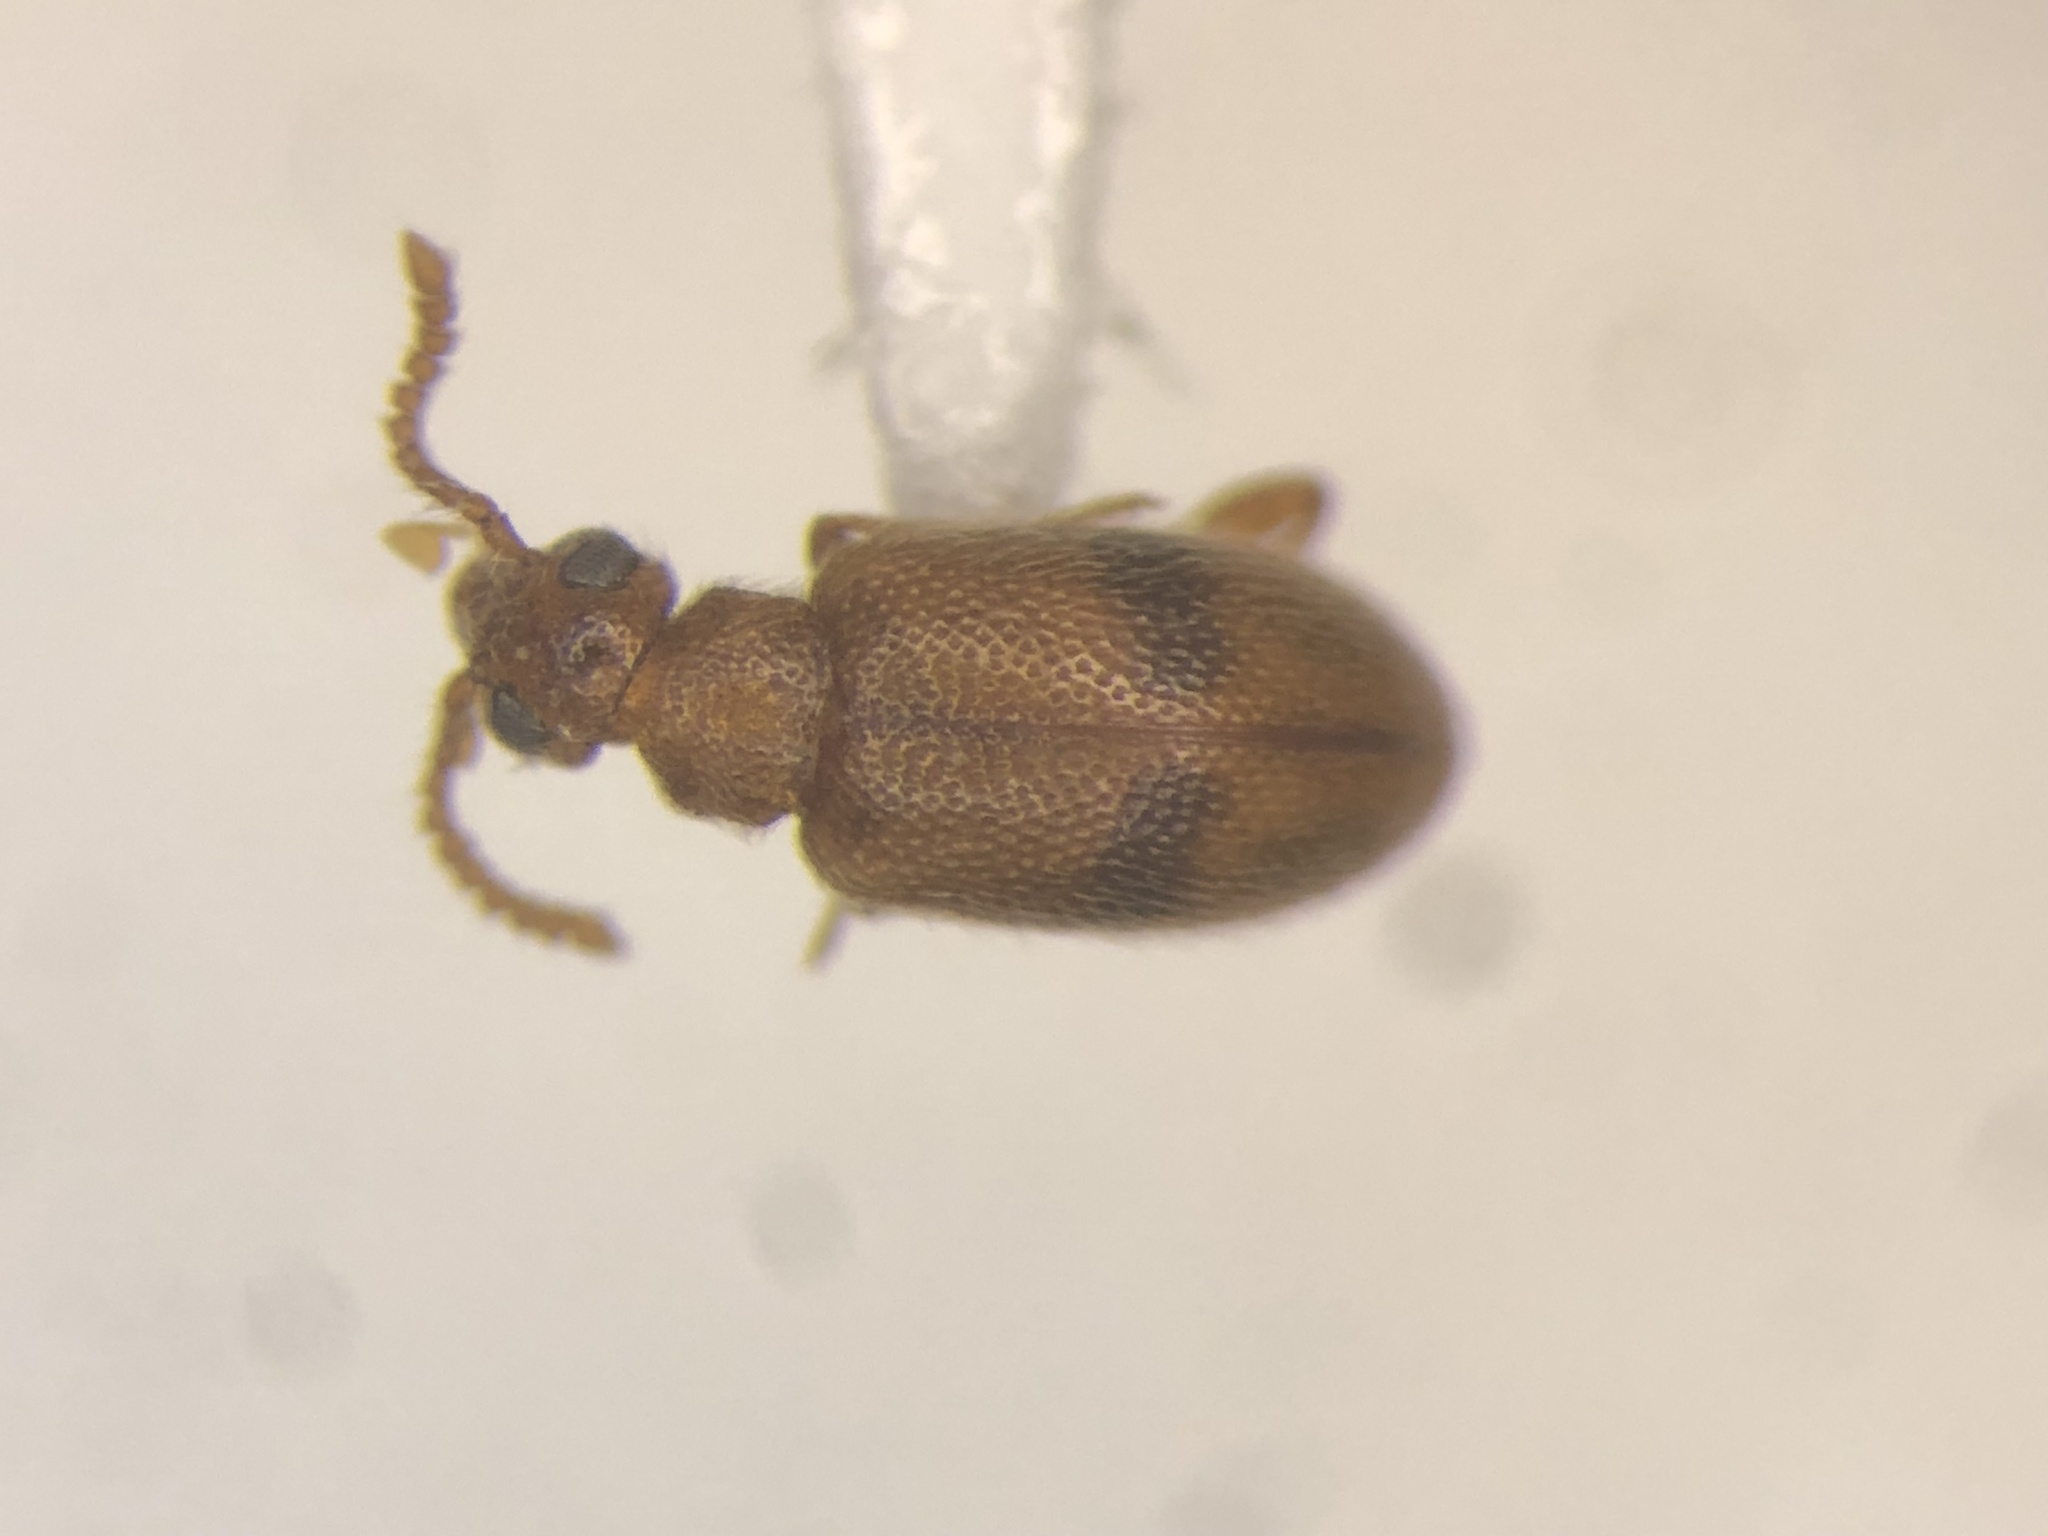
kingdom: Animalia
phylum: Arthropoda
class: Insecta
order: Coleoptera
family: Aderidae
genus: Zonantes
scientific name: Zonantes pallidus
